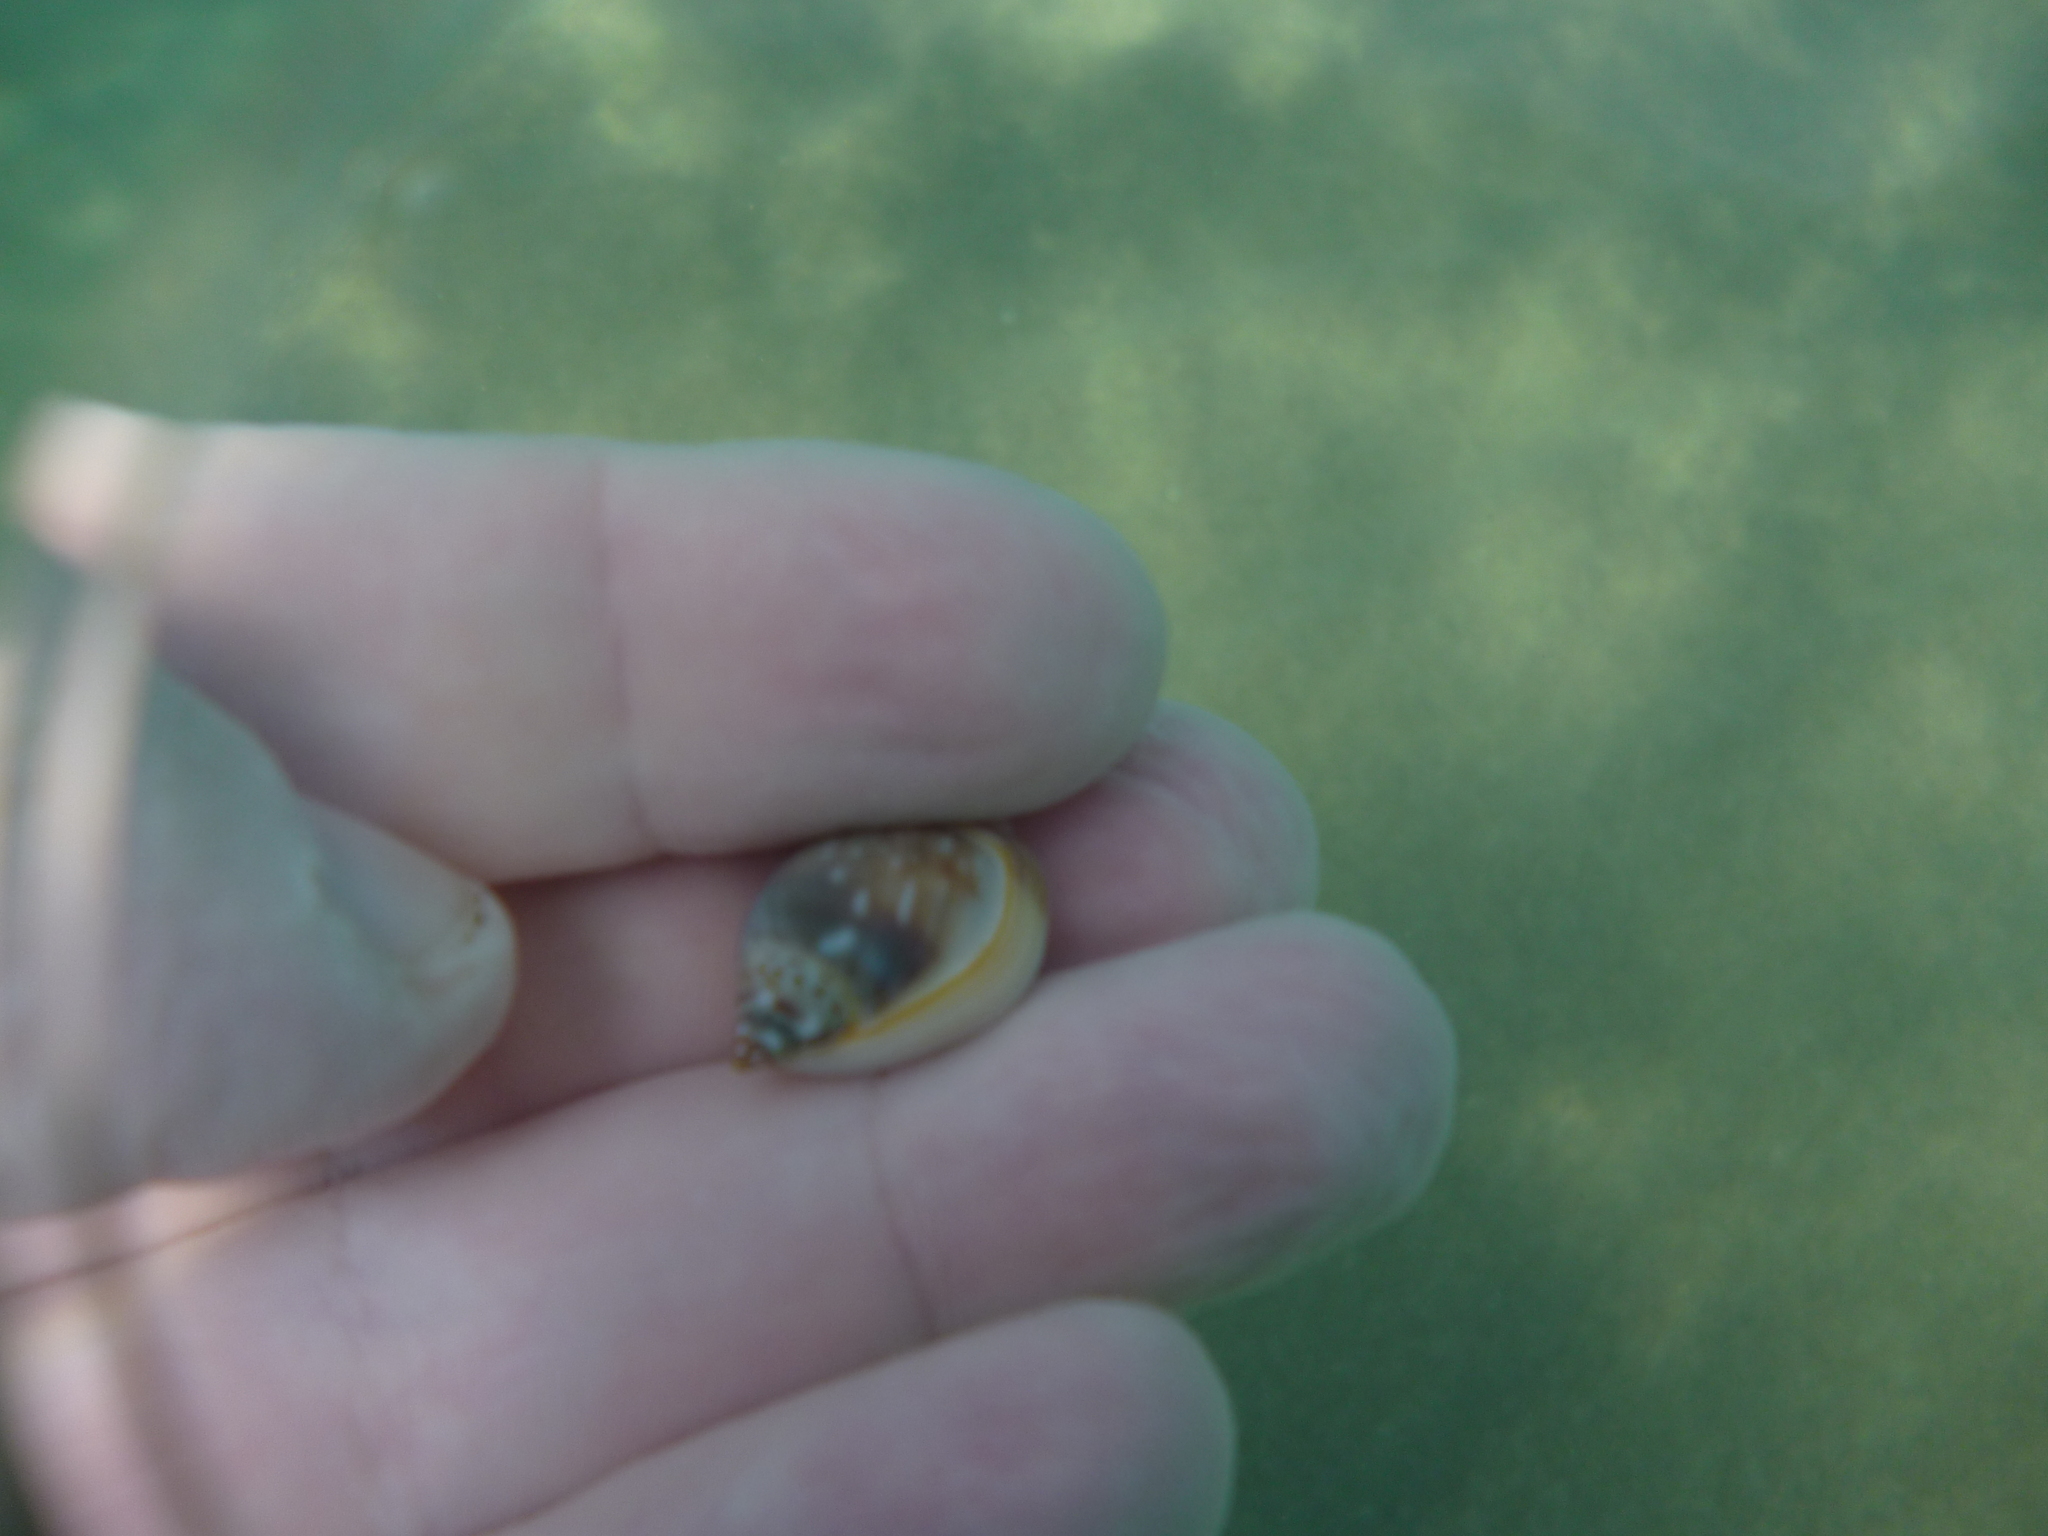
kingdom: Animalia
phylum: Mollusca
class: Gastropoda
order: Neogastropoda
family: Nassariidae
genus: Tritia
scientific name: Tritia gibbosula
